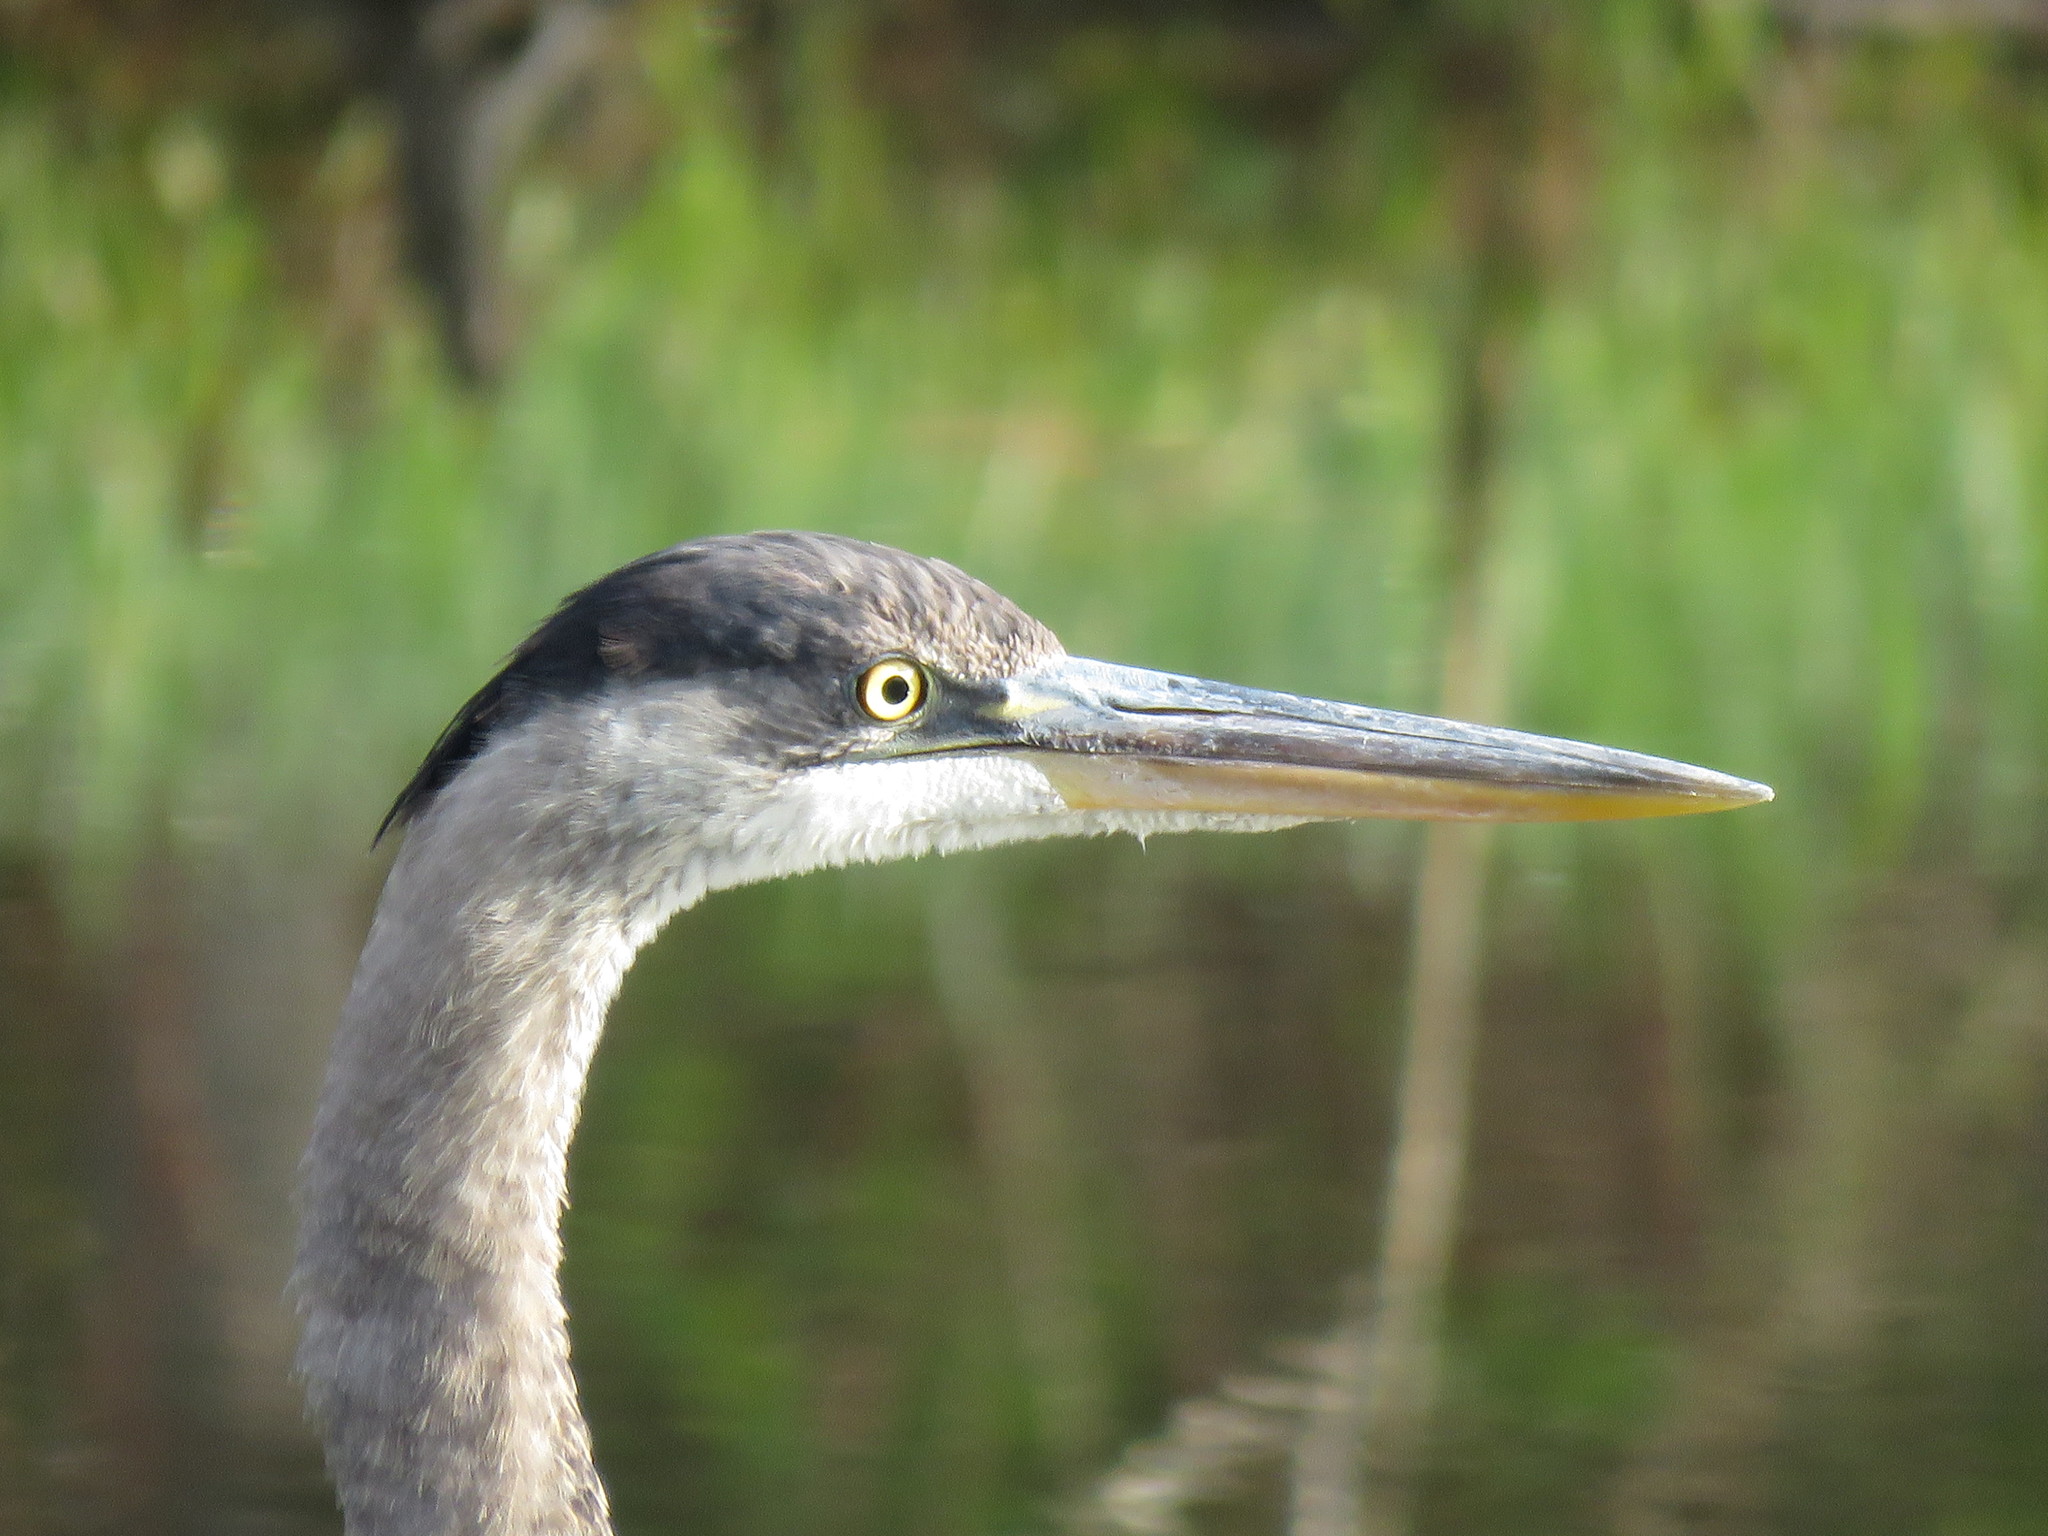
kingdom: Animalia
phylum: Chordata
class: Aves
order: Pelecaniformes
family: Ardeidae
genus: Ardea
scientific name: Ardea herodias
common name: Great blue heron
